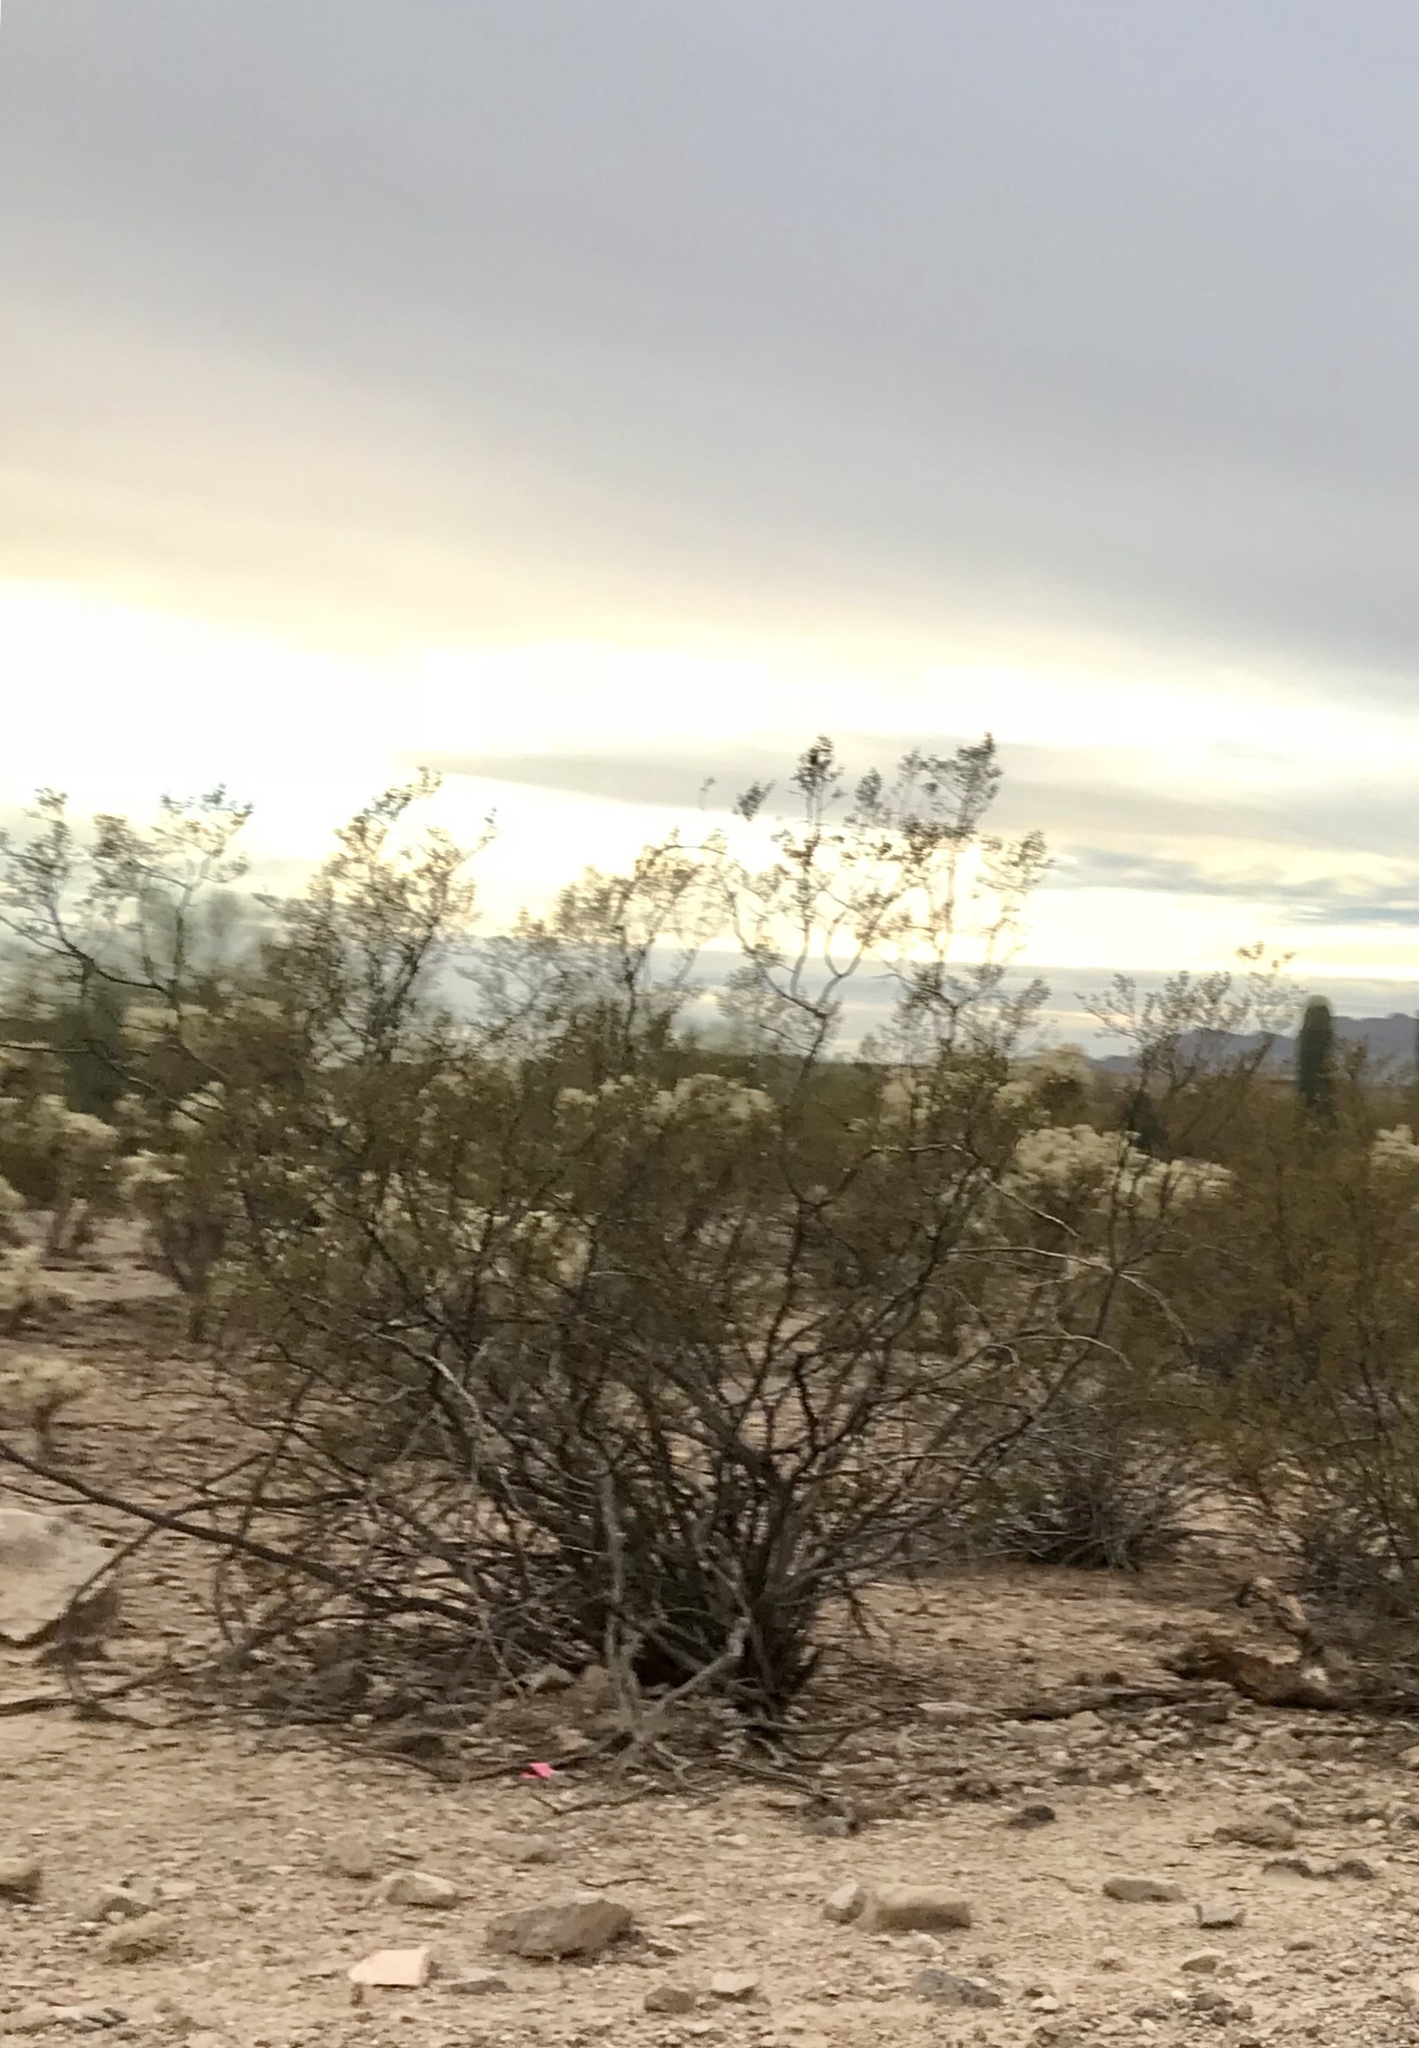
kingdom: Plantae
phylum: Tracheophyta
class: Magnoliopsida
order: Zygophyllales
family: Zygophyllaceae
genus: Larrea
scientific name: Larrea tridentata
